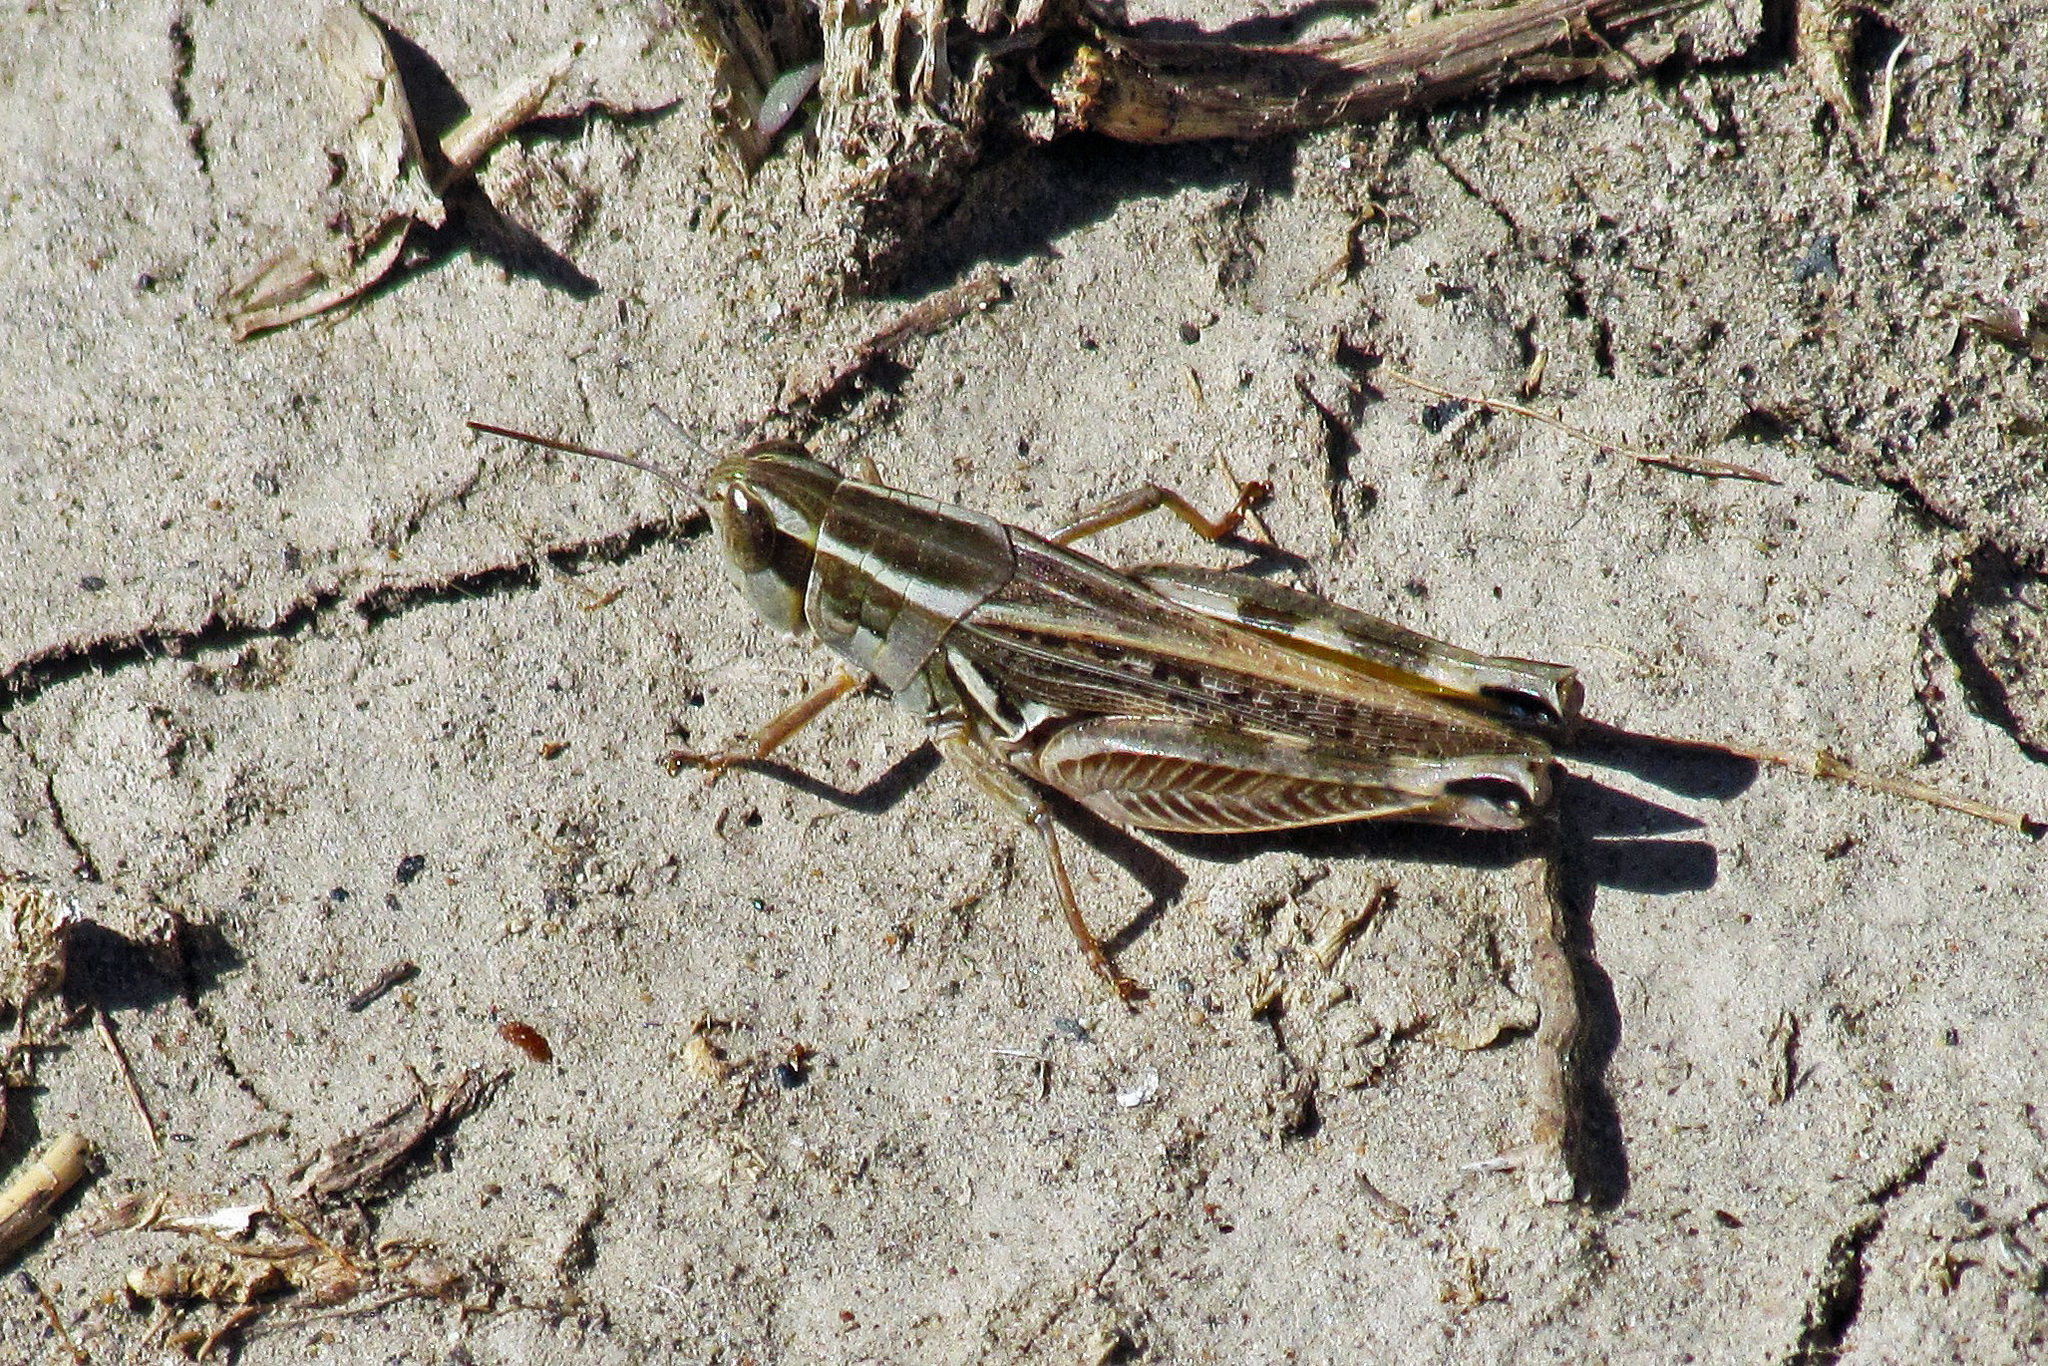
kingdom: Animalia
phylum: Arthropoda
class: Insecta
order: Orthoptera
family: Acrididae
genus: Dichroplus
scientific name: Dichroplus pratensis
